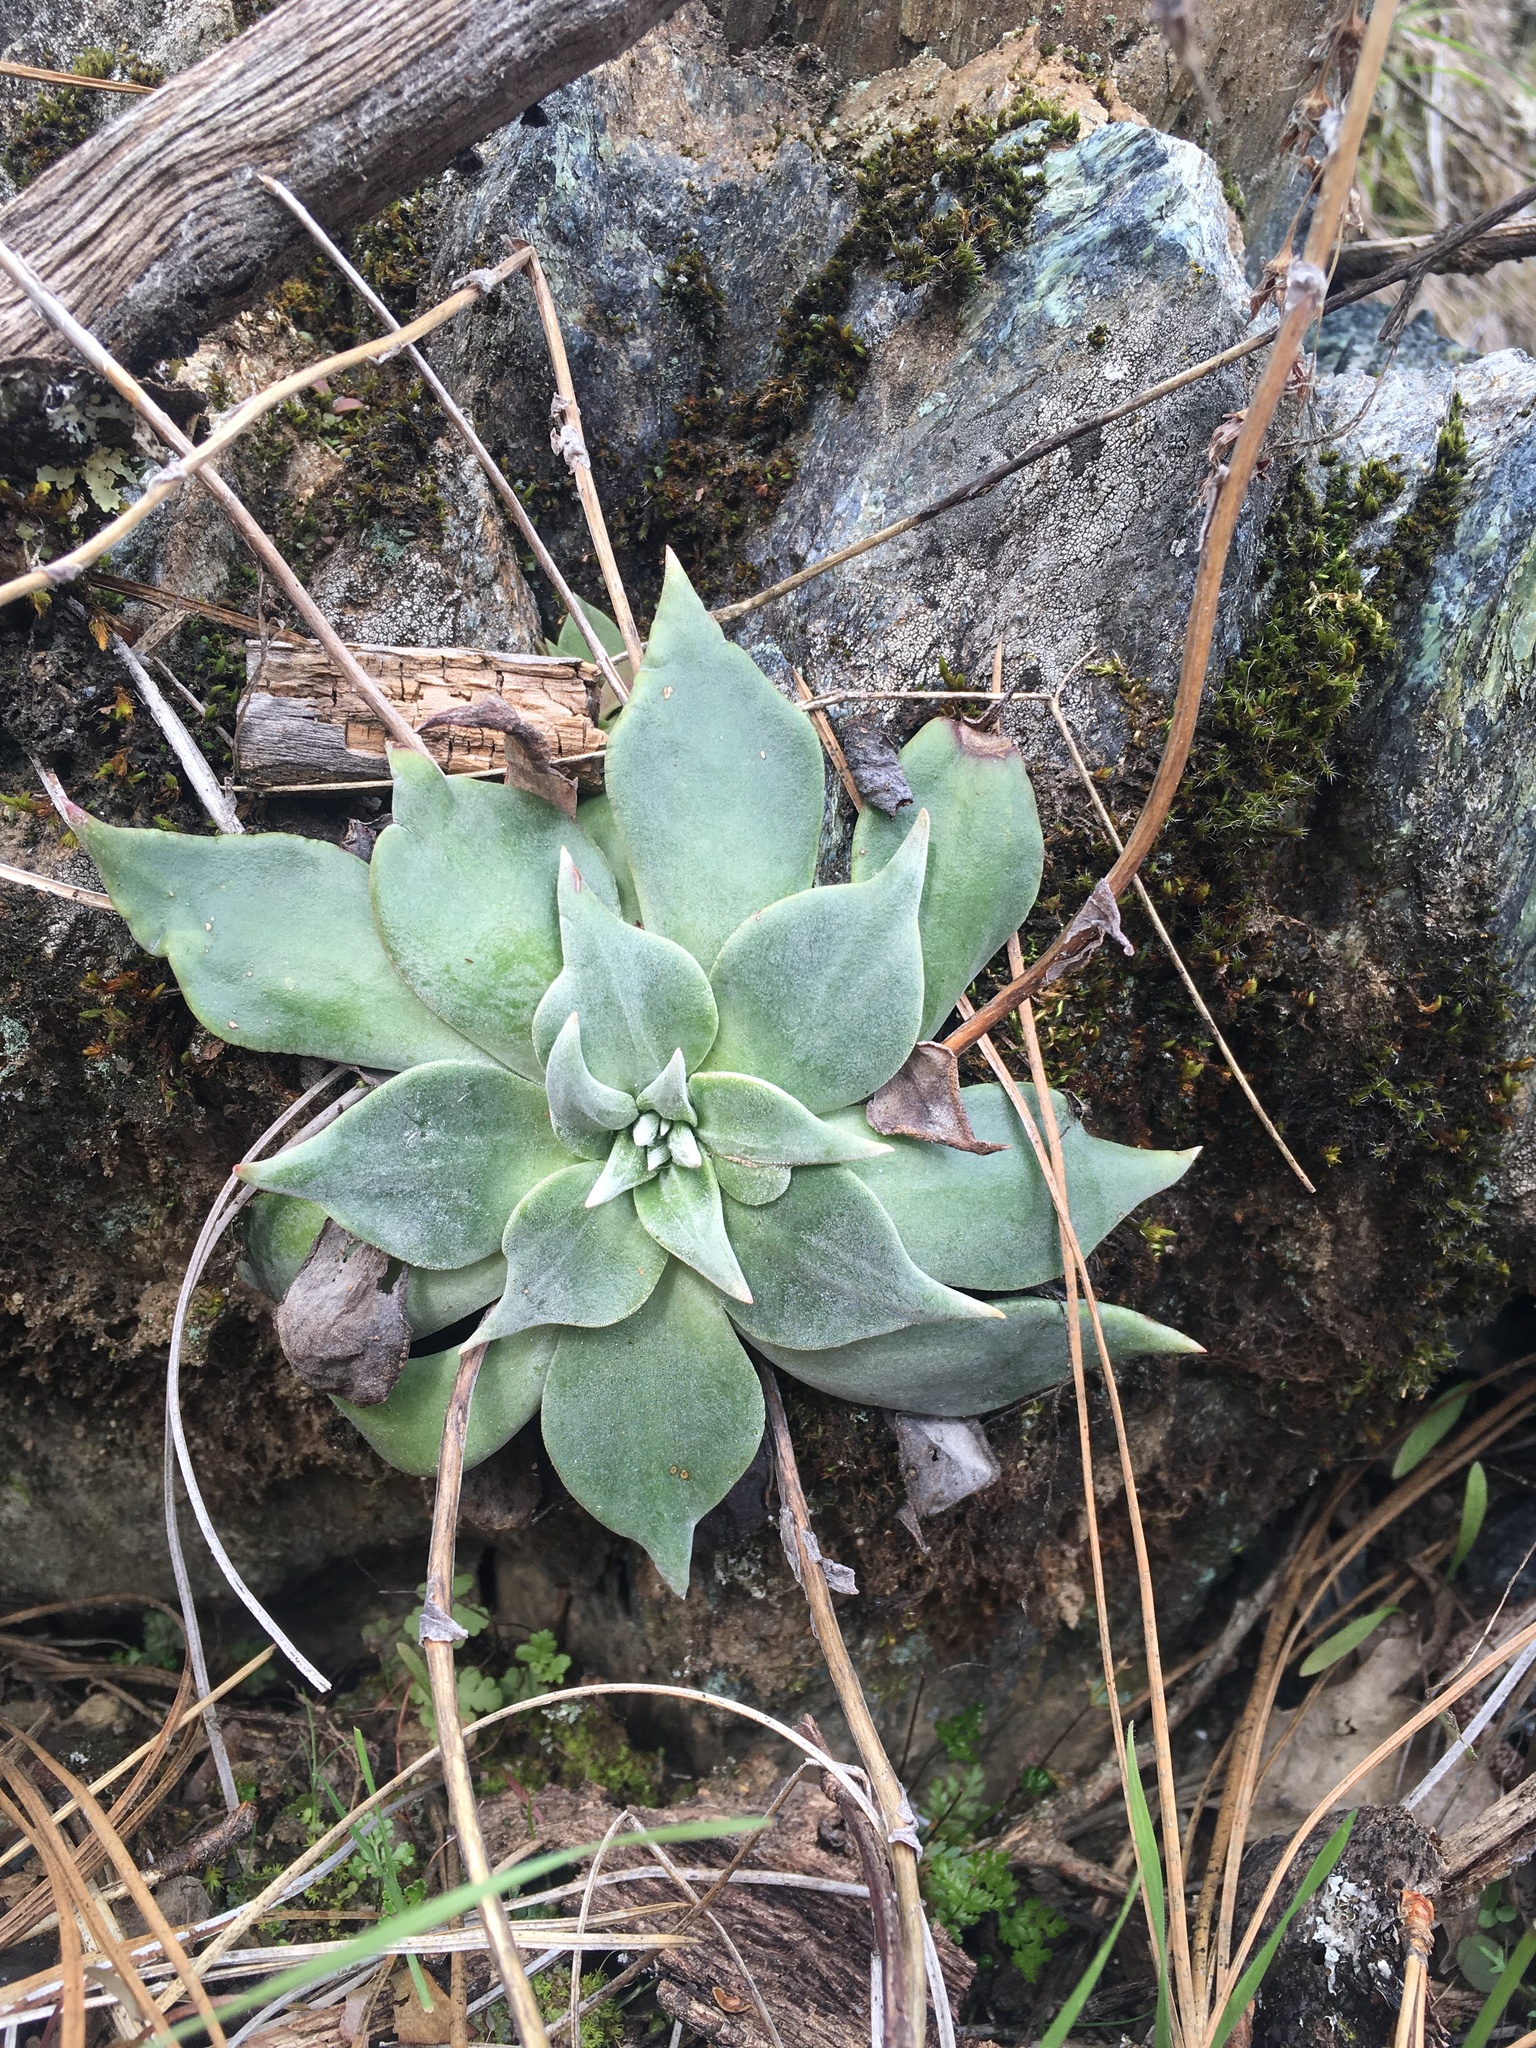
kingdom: Plantae
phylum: Tracheophyta
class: Magnoliopsida
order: Saxifragales
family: Crassulaceae
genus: Dudleya
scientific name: Dudleya cymosa
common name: Canyon dudleya
